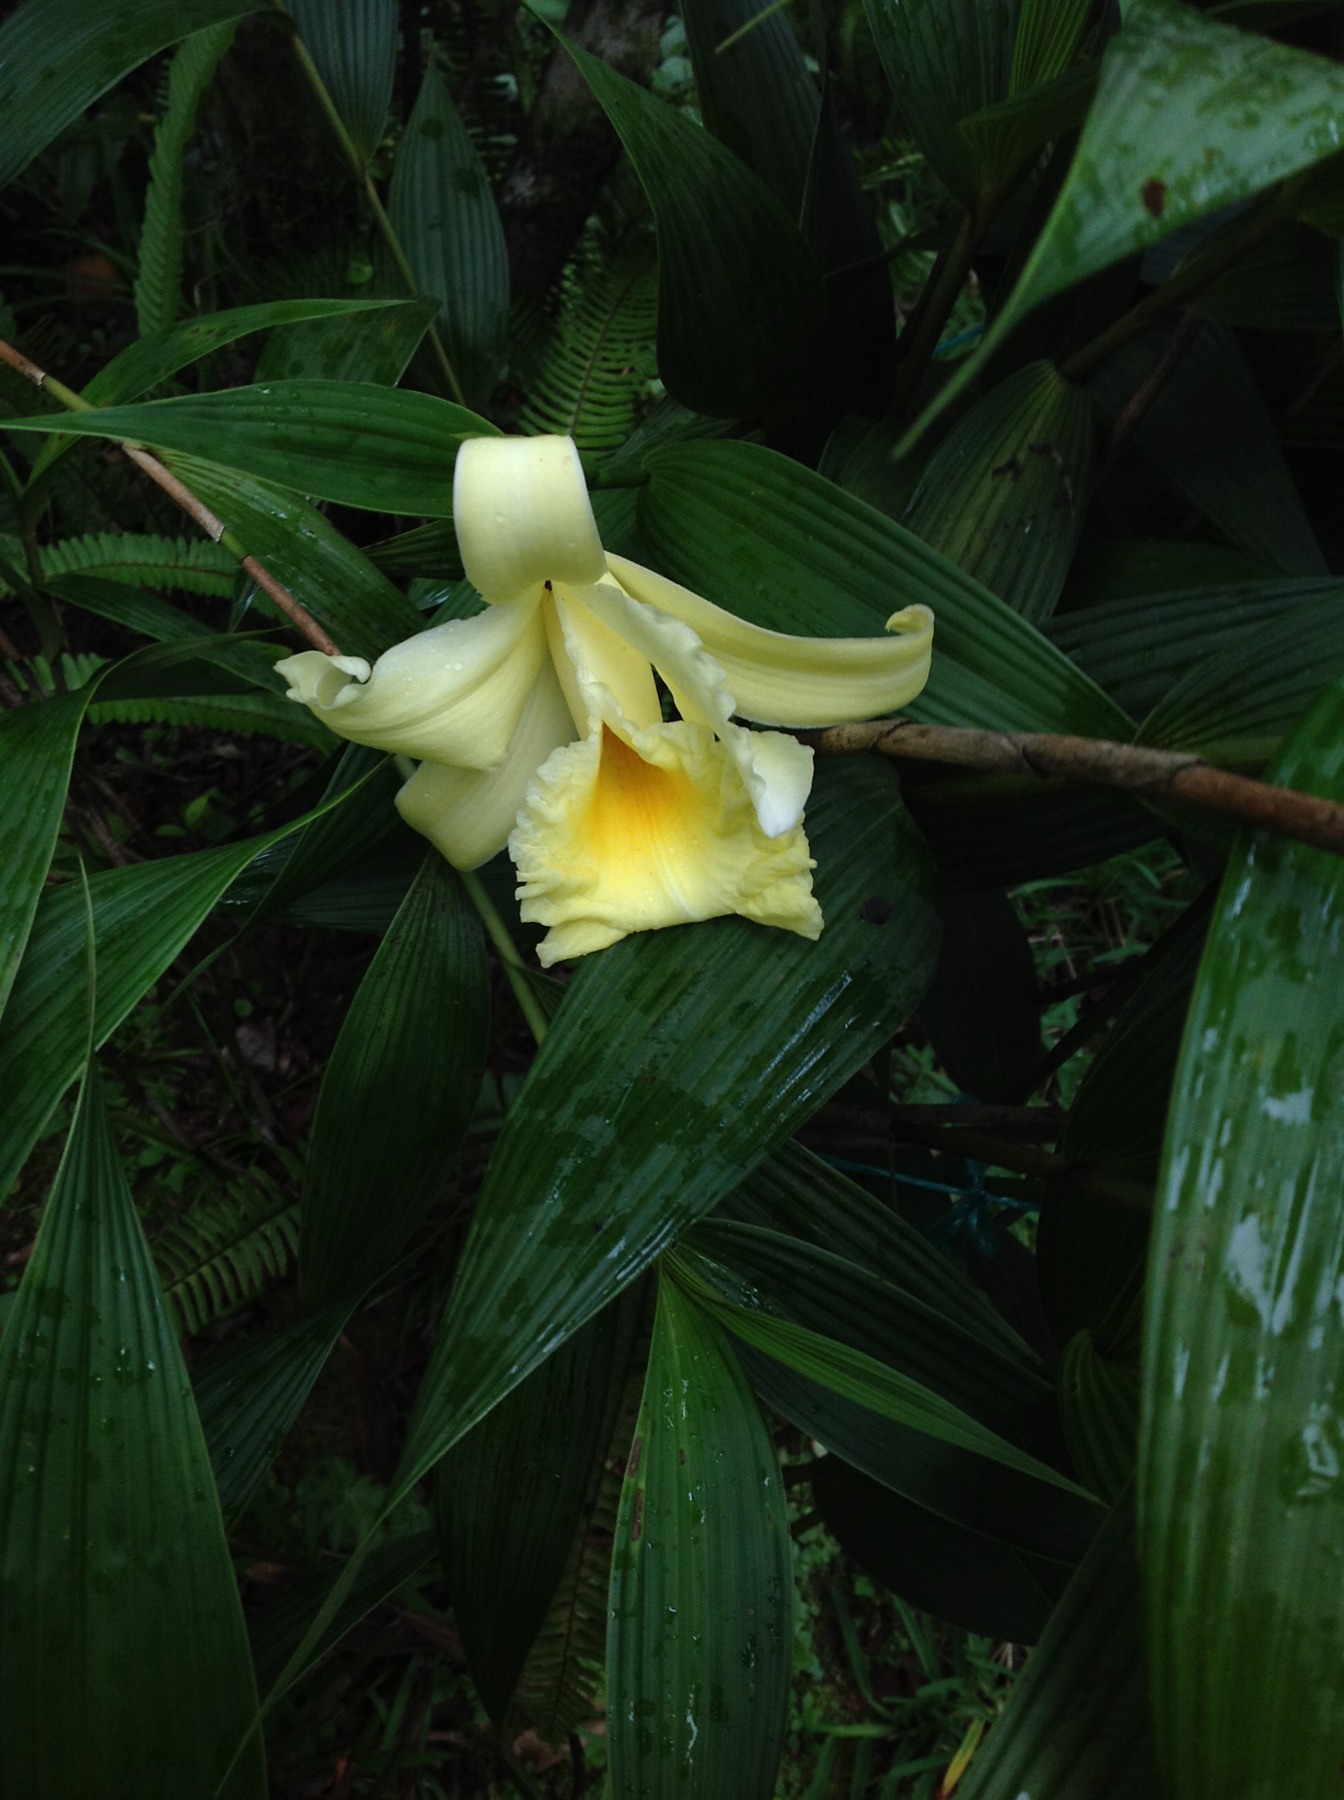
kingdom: Plantae
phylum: Tracheophyta
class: Liliopsida
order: Asparagales
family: Orchidaceae
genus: Sobralia
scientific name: Sobralia xantholeuca
